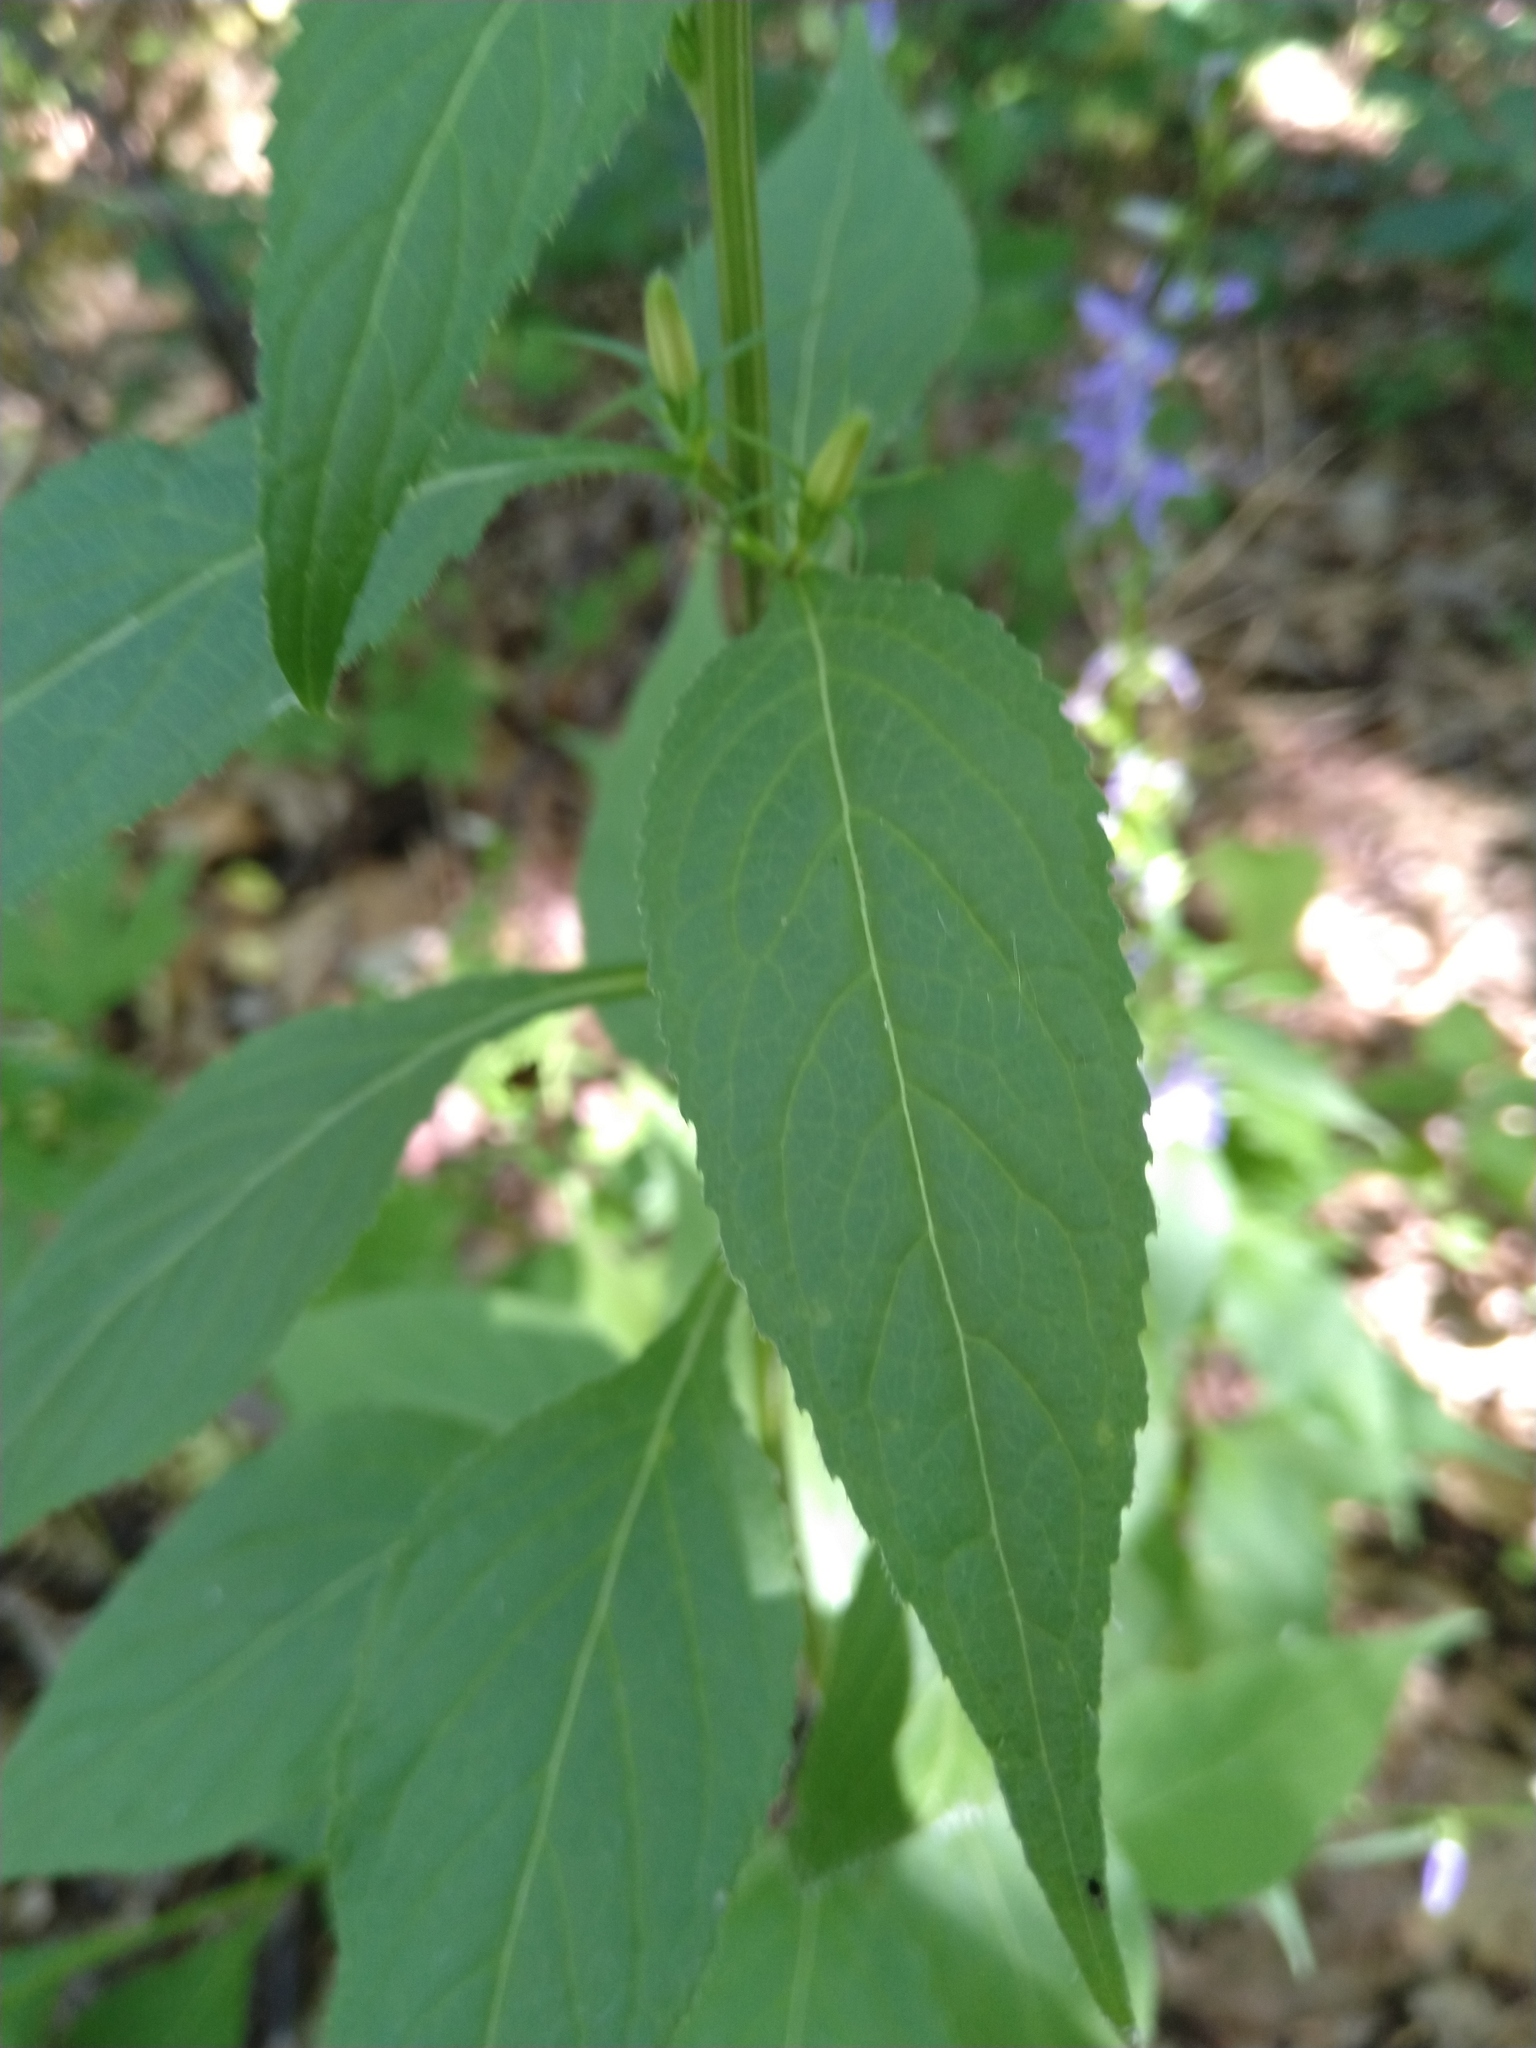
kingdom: Plantae
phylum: Tracheophyta
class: Magnoliopsida
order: Asterales
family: Campanulaceae
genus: Campanulastrum
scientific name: Campanulastrum americanum
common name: American bellflower
